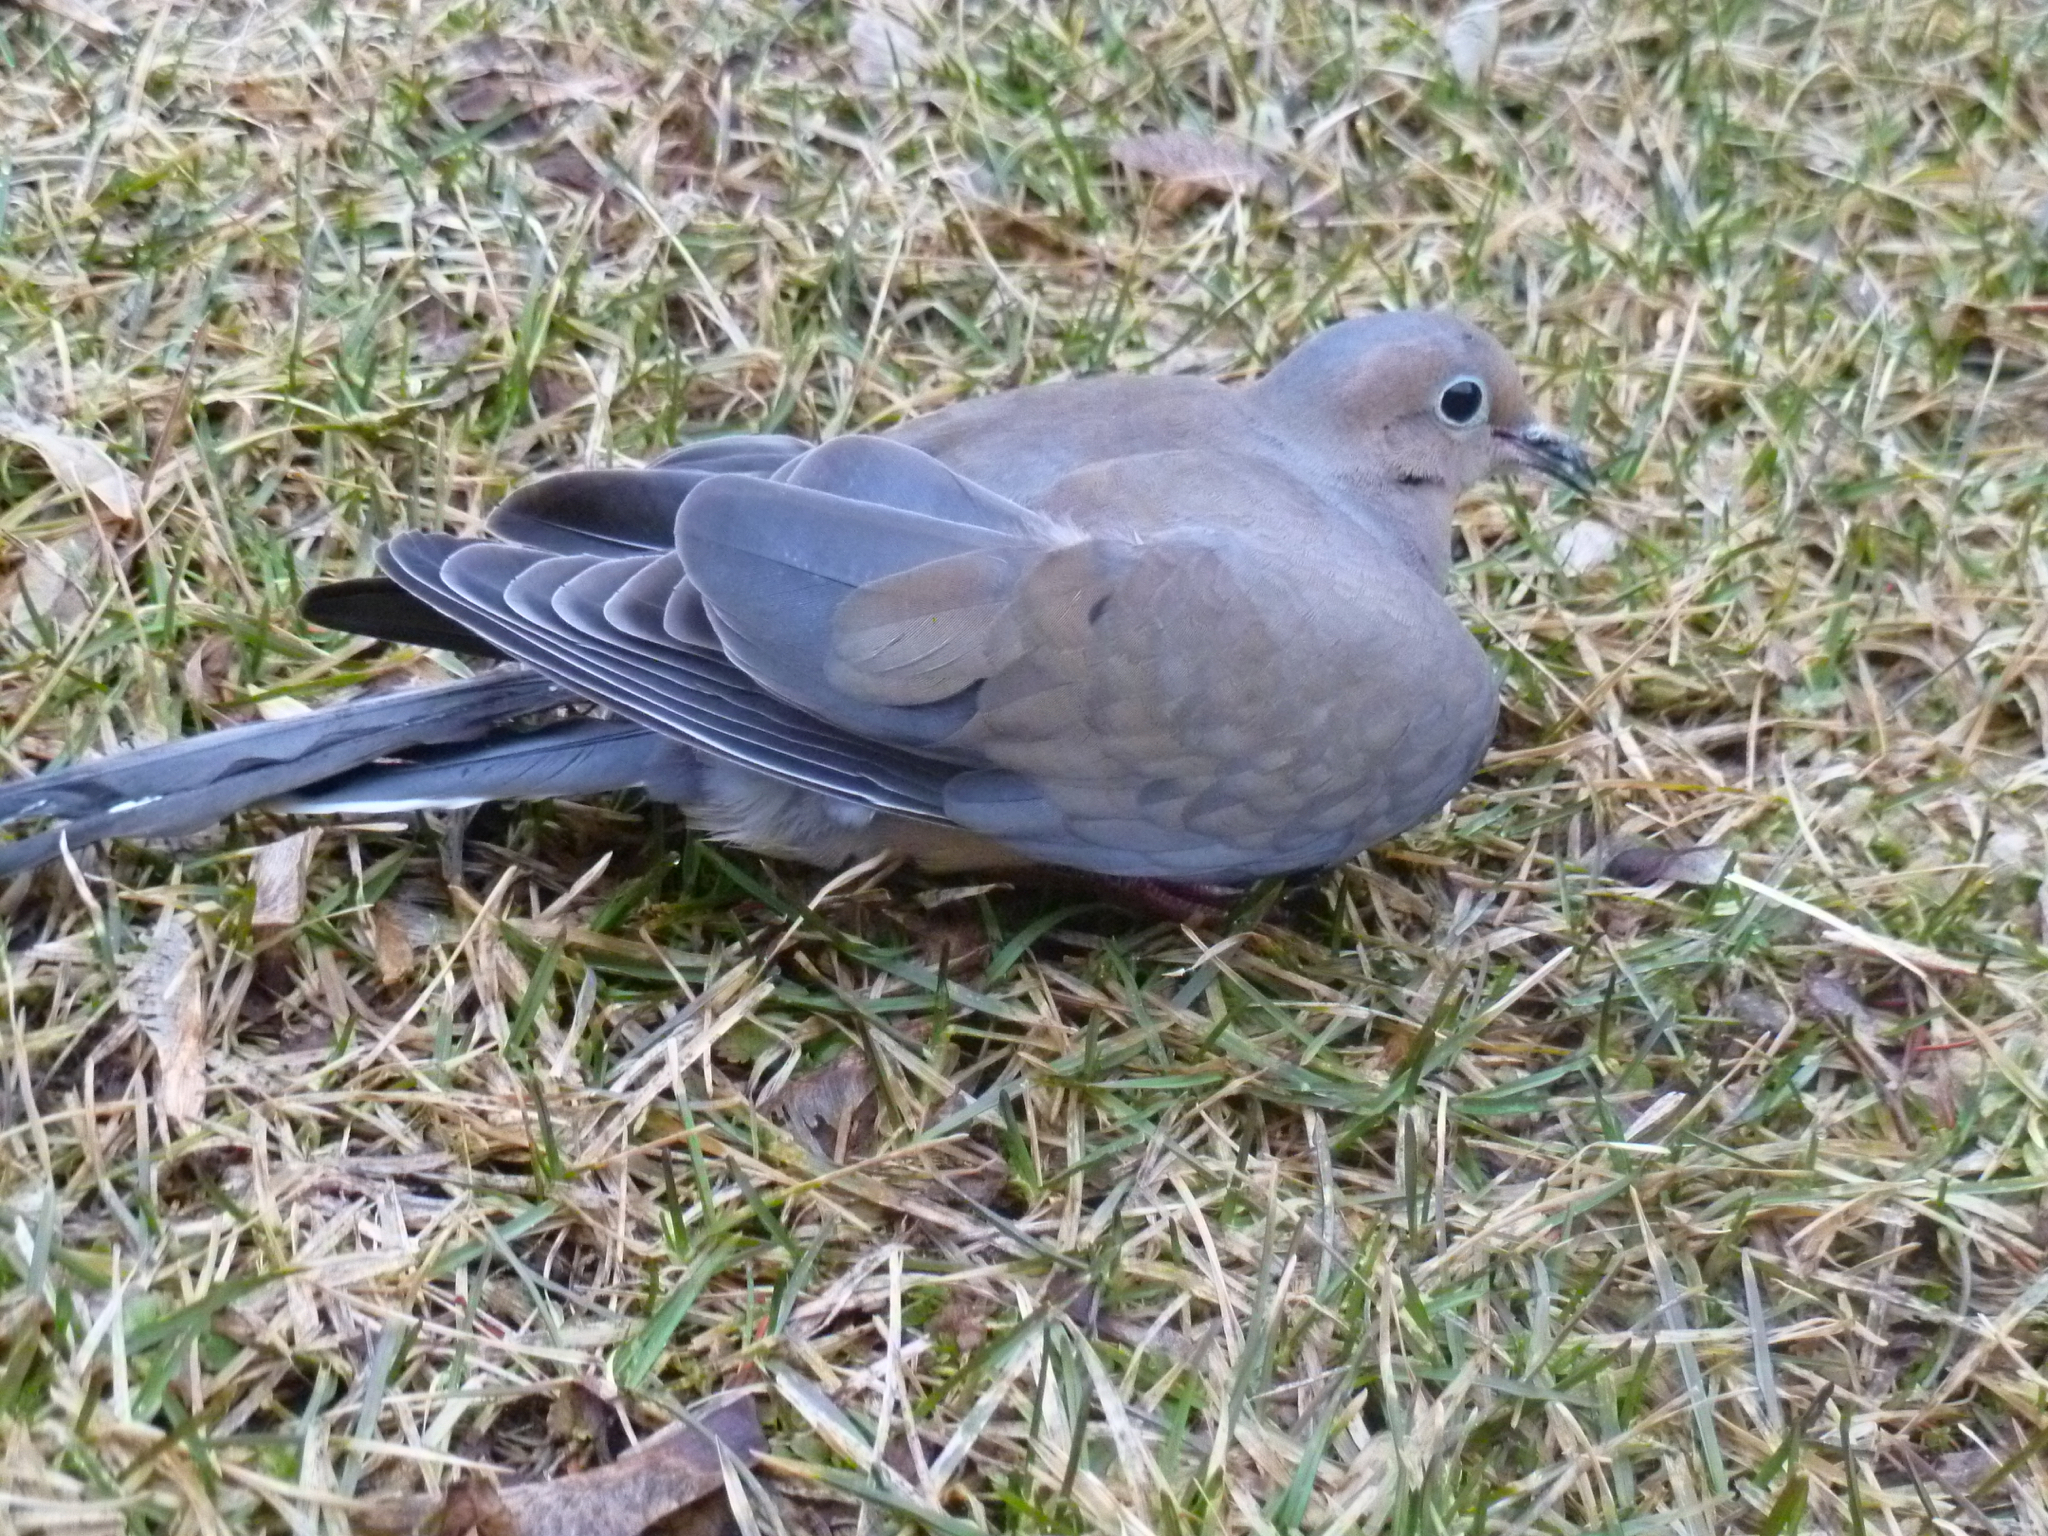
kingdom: Animalia
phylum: Chordata
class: Aves
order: Columbiformes
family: Columbidae
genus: Zenaida
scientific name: Zenaida macroura
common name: Mourning dove
